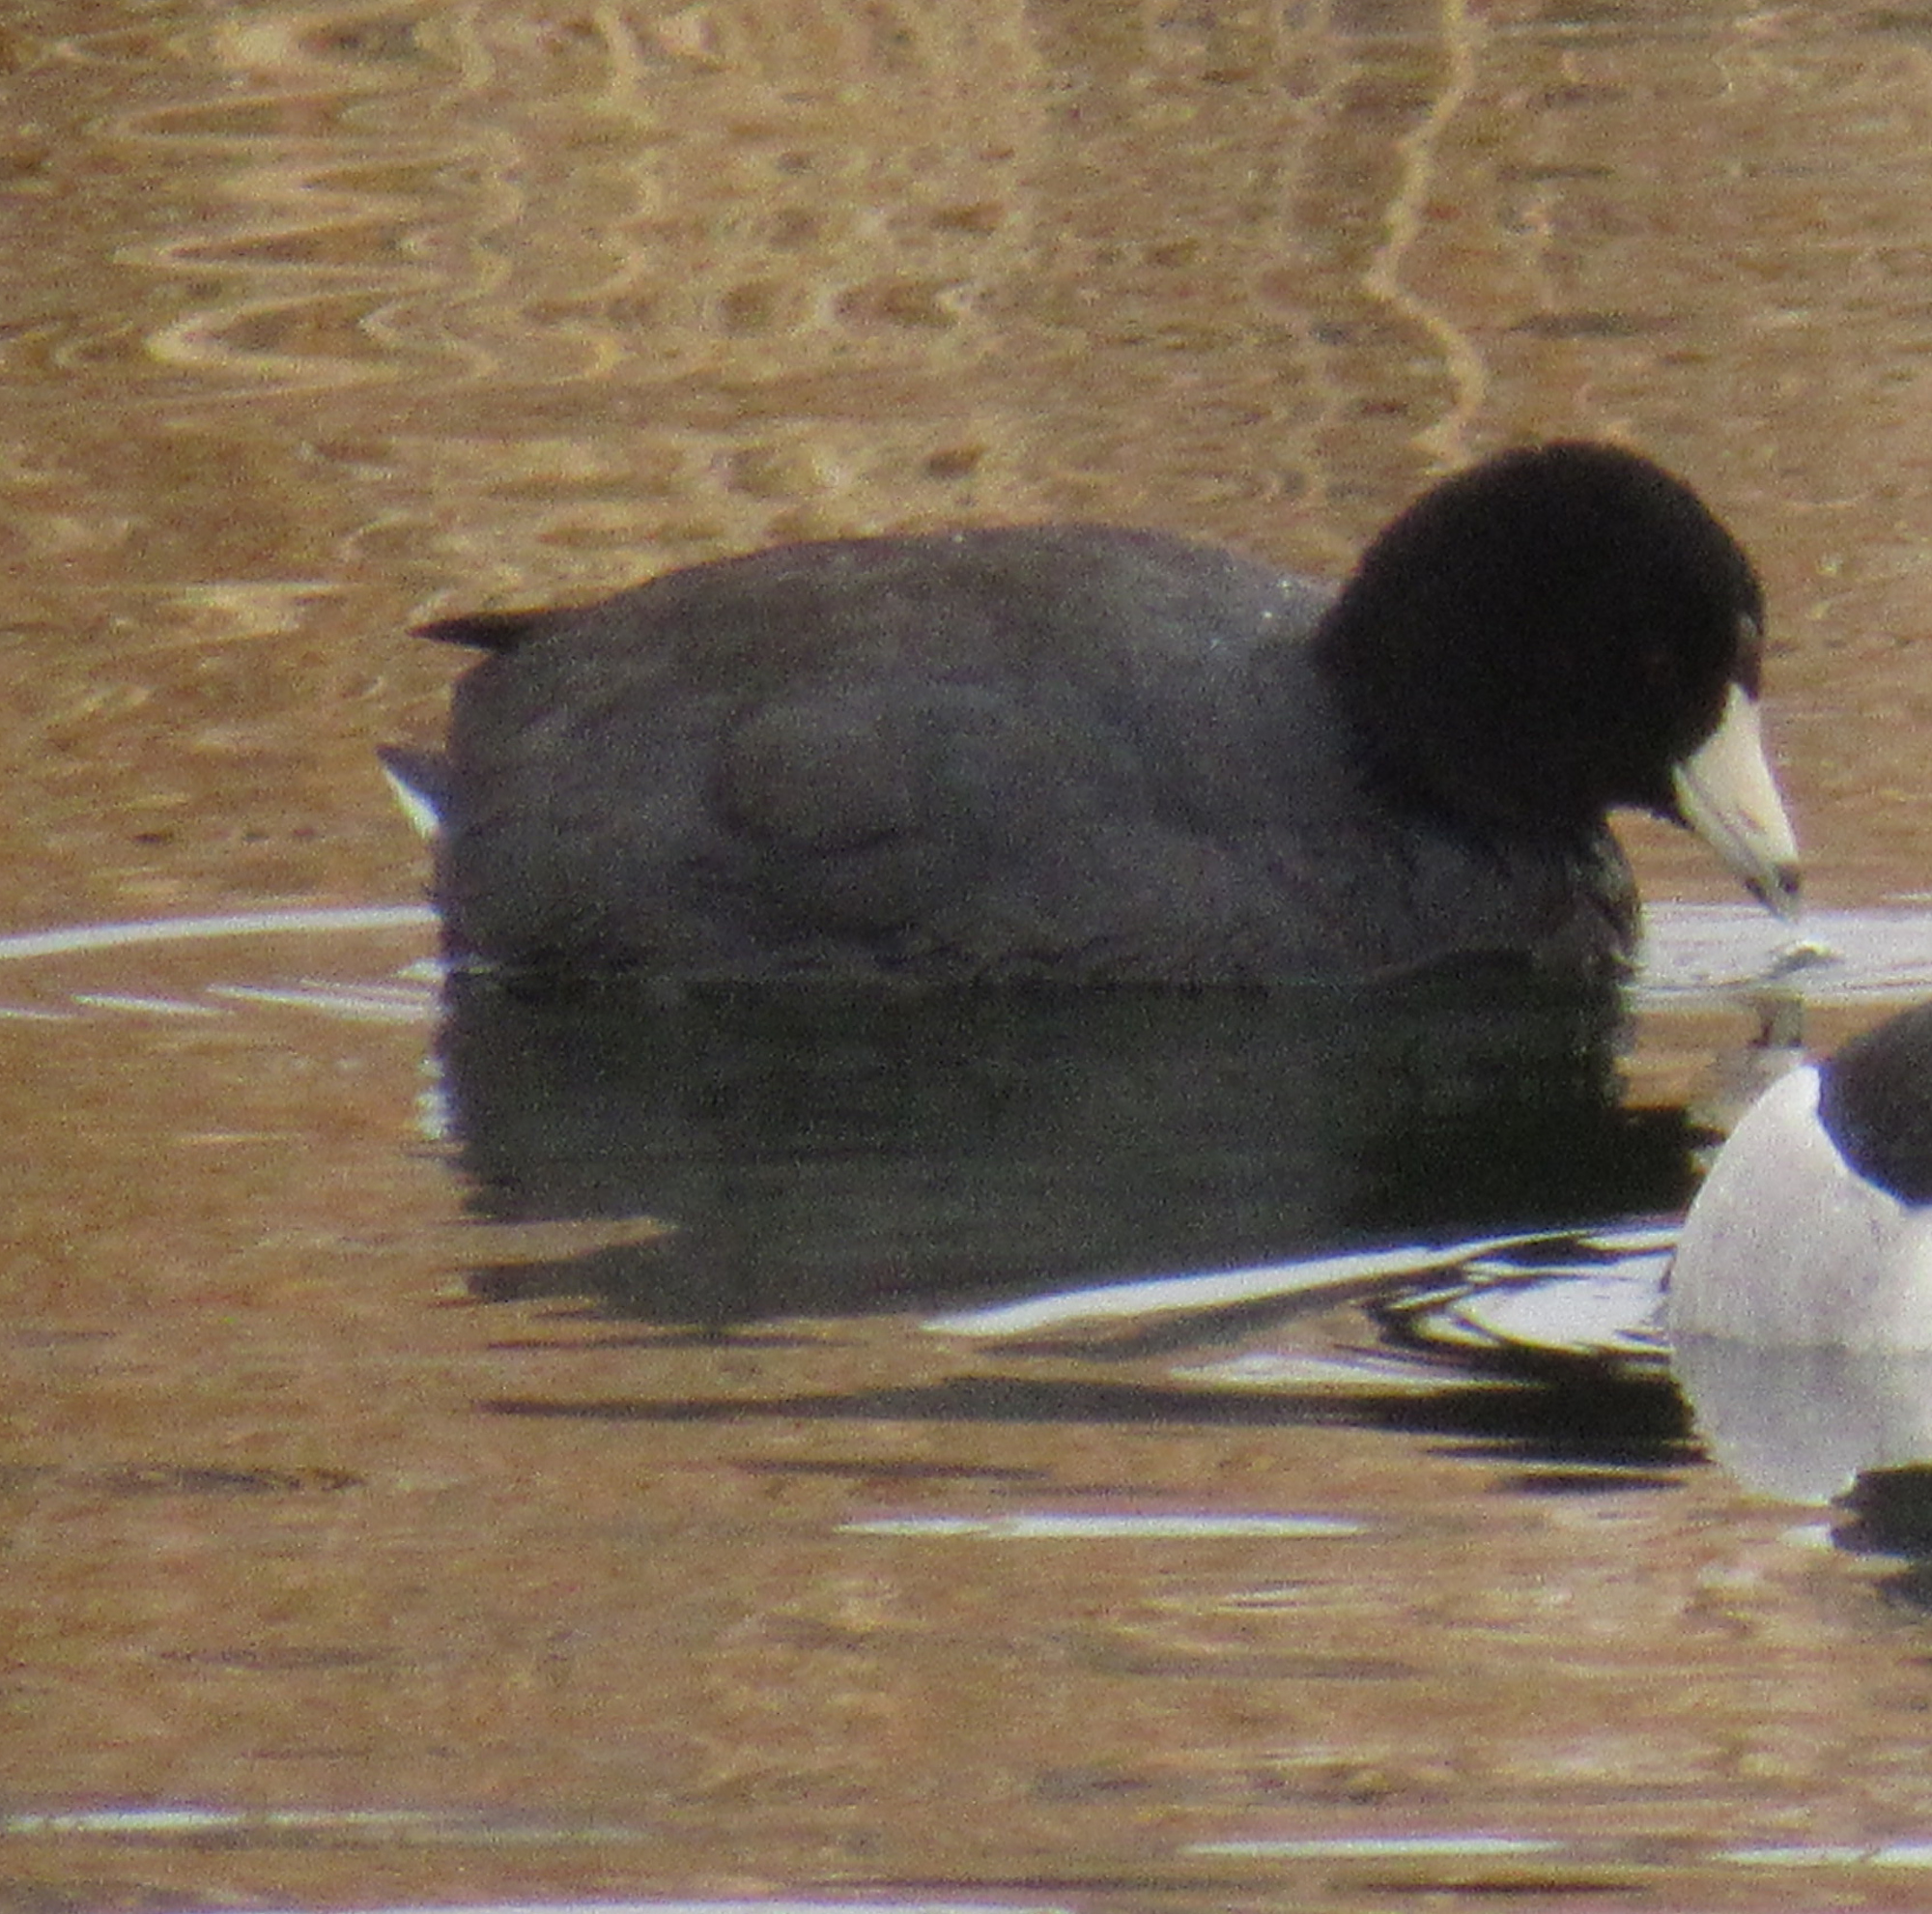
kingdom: Animalia
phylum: Chordata
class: Aves
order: Gruiformes
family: Rallidae
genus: Fulica
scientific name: Fulica americana
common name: American coot
